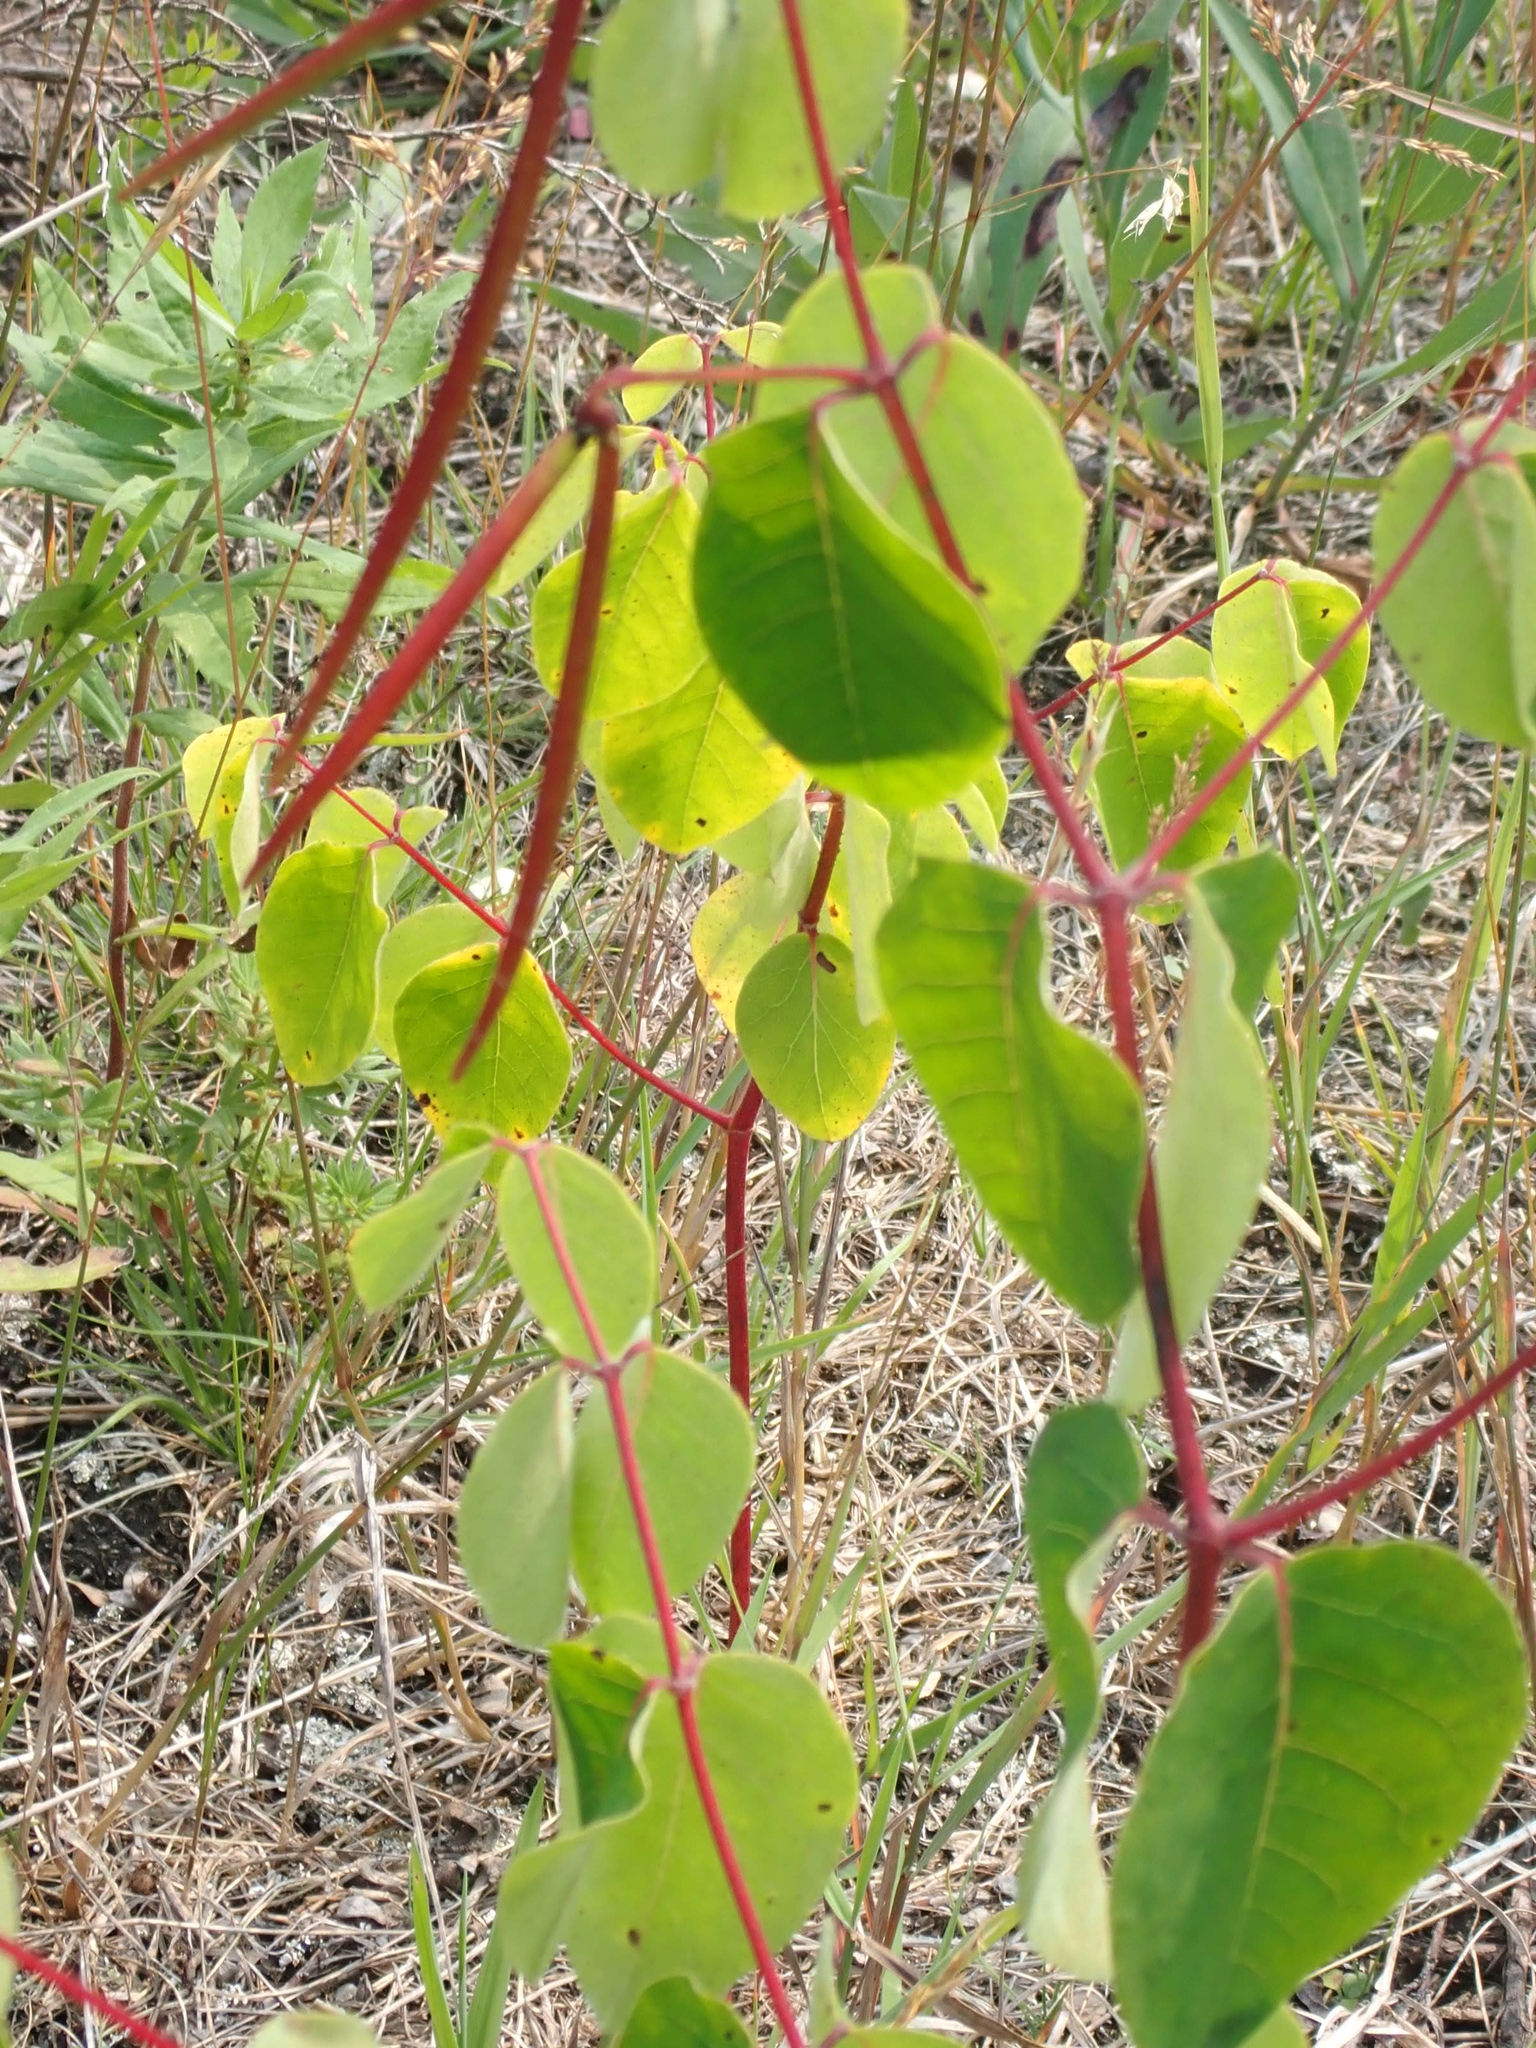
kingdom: Plantae
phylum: Tracheophyta
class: Magnoliopsida
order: Gentianales
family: Apocynaceae
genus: Apocynum
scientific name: Apocynum androsaemifolium
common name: Spreading dogbane
